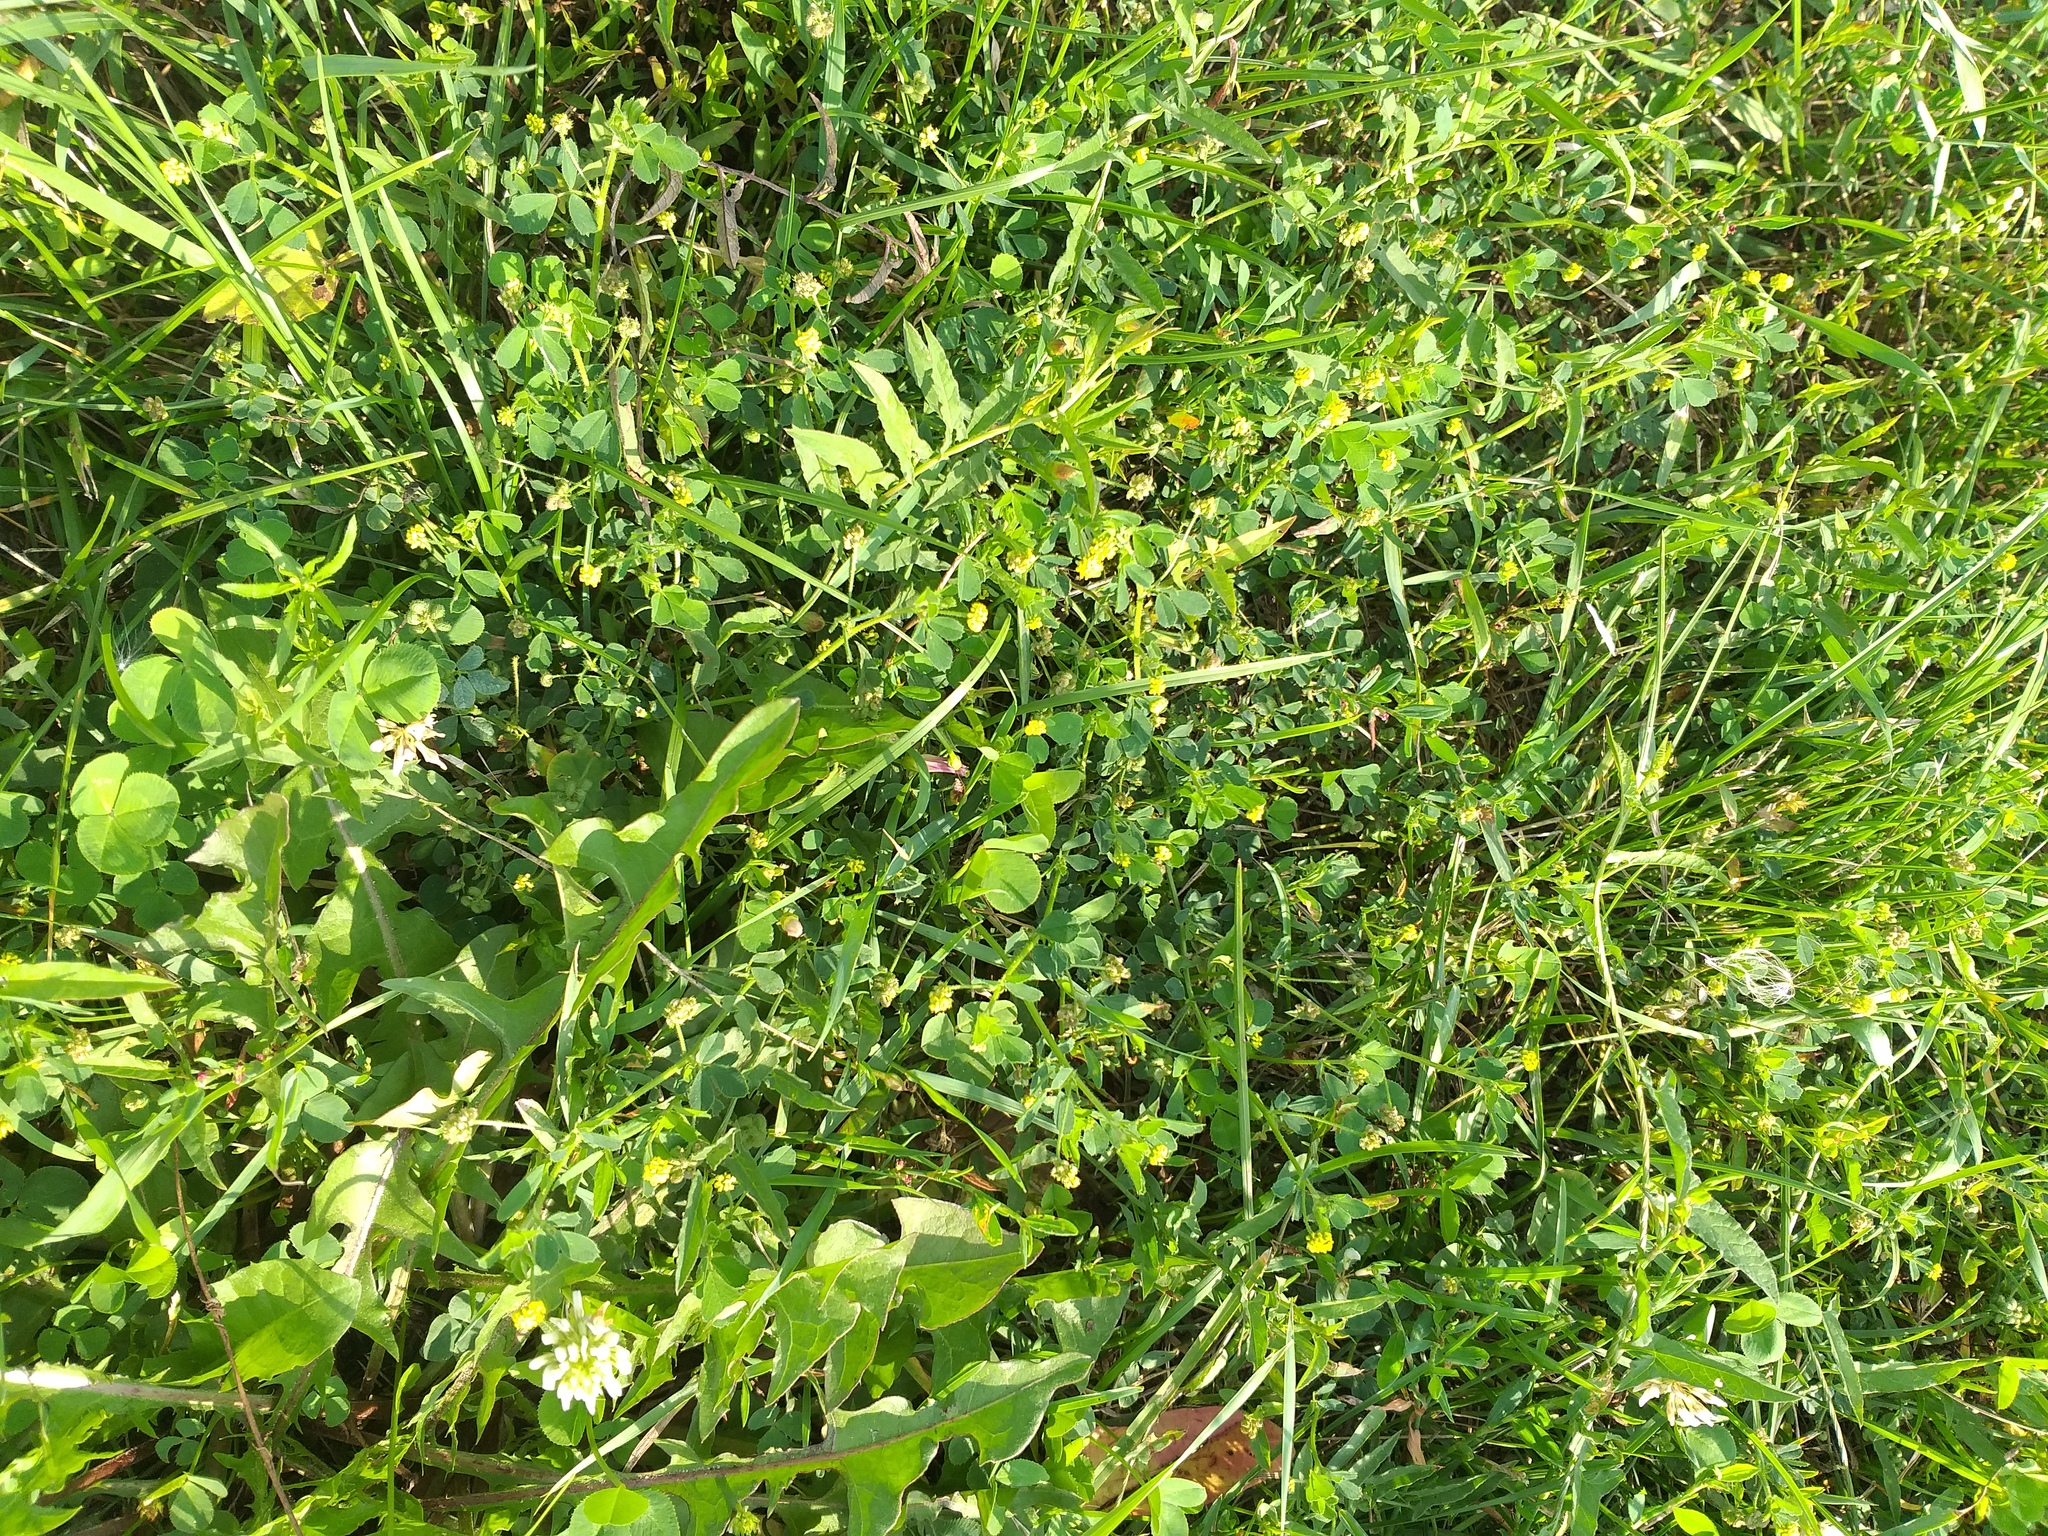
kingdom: Plantae
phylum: Tracheophyta
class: Magnoliopsida
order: Fabales
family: Fabaceae
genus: Medicago
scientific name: Medicago lupulina
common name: Black medick
